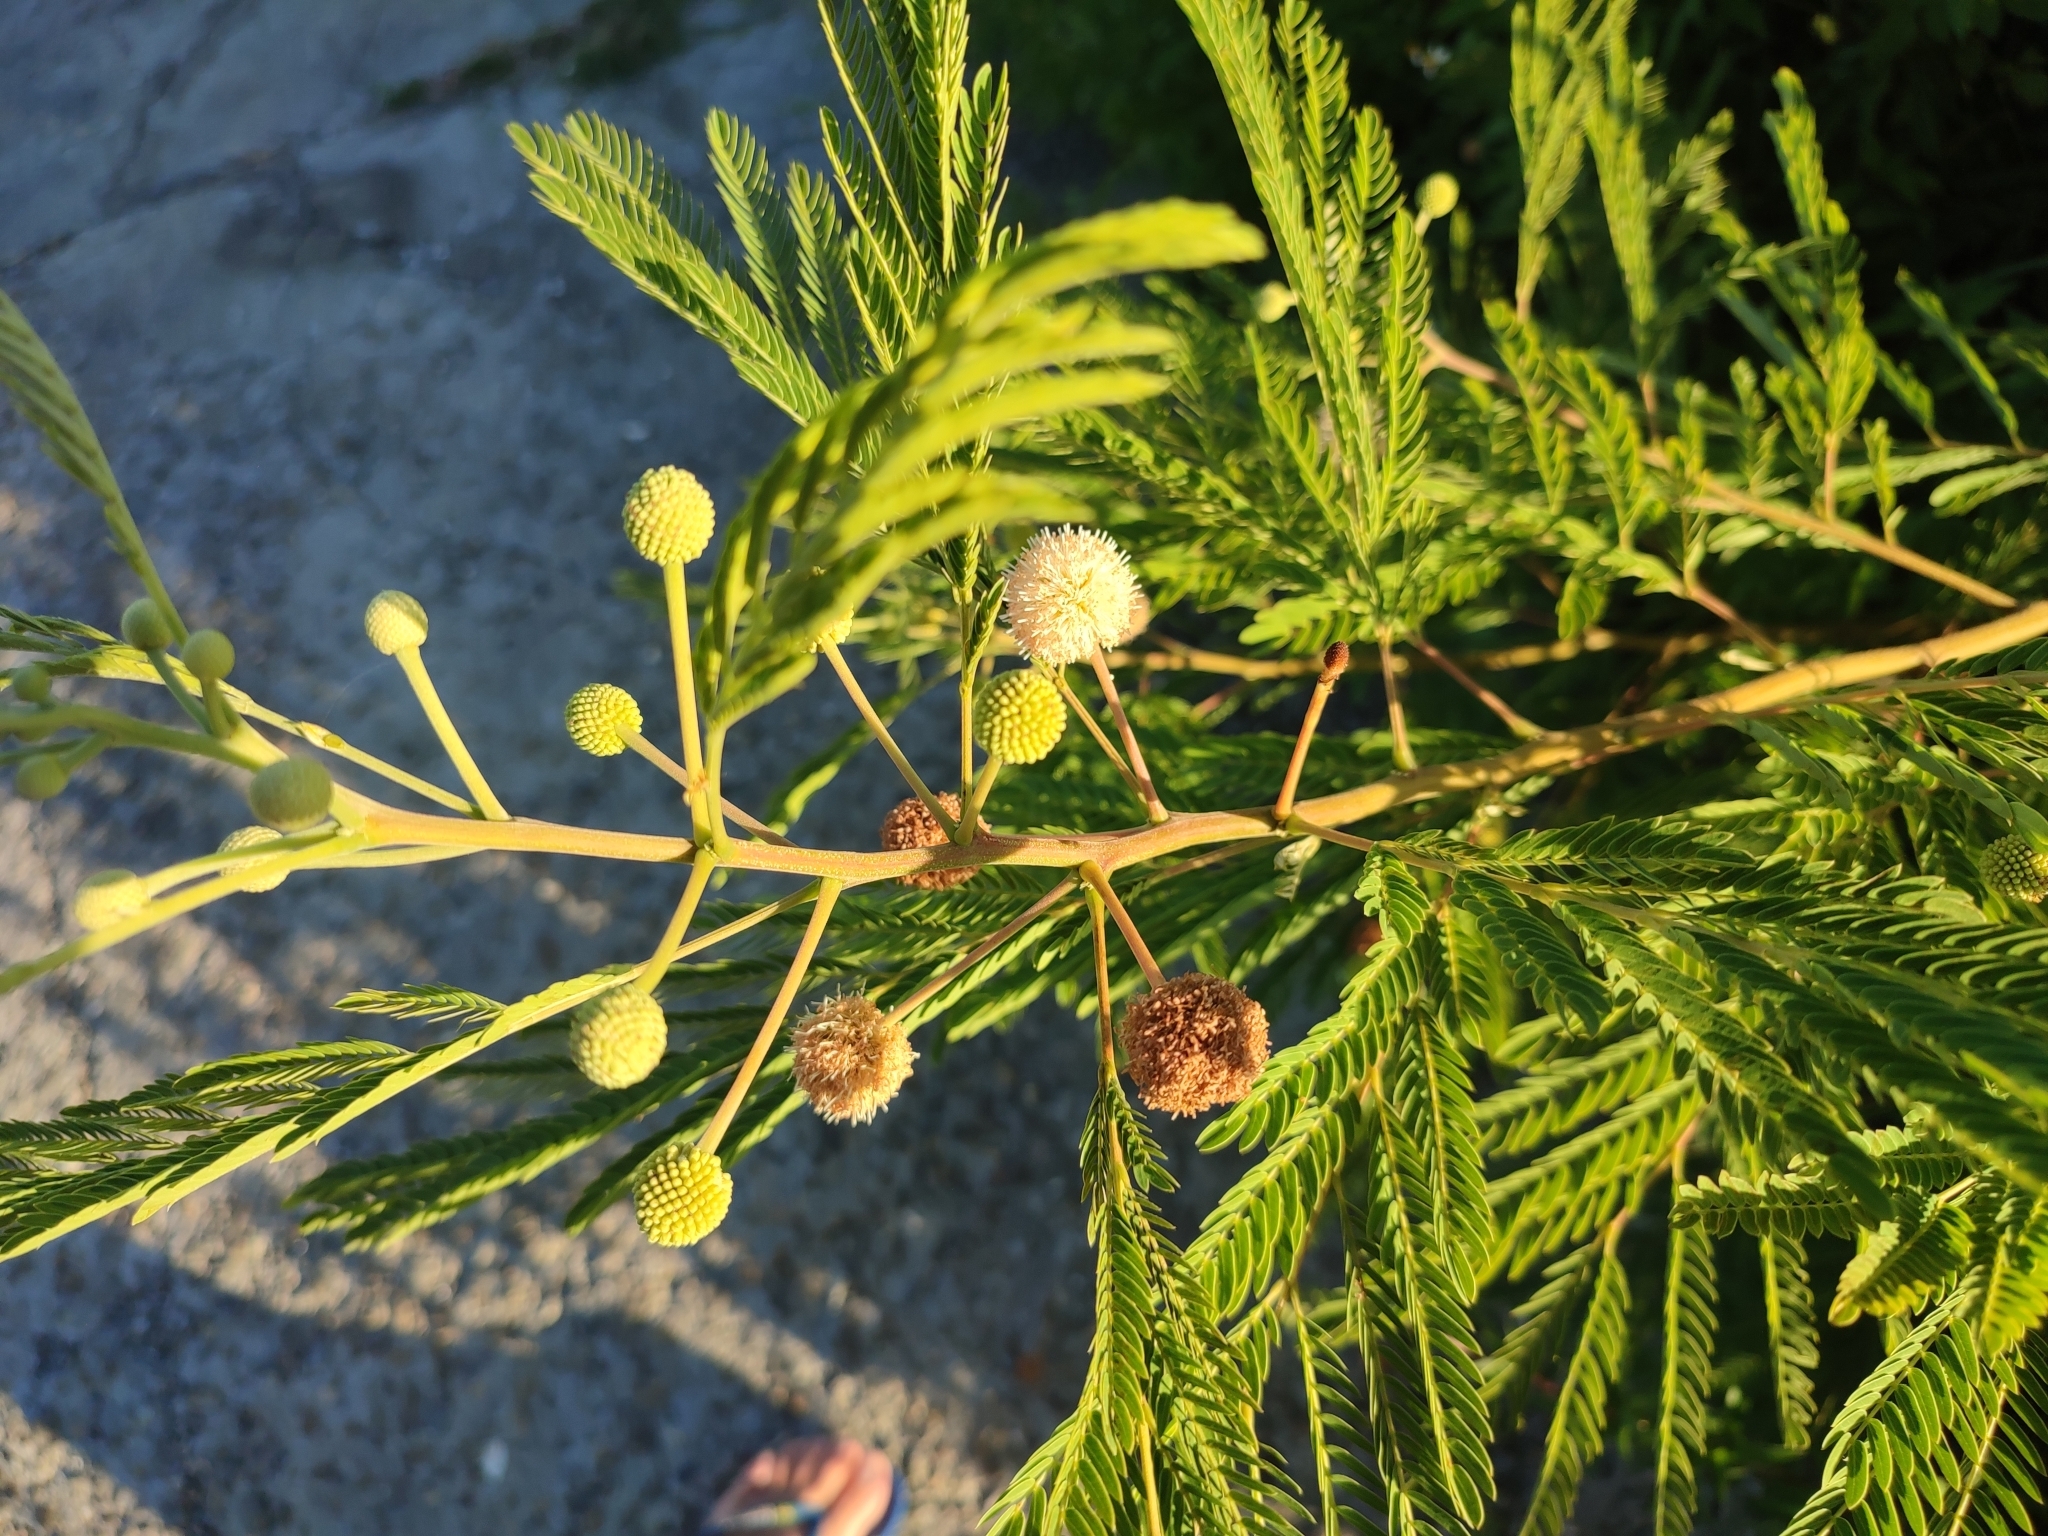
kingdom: Plantae
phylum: Tracheophyta
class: Magnoliopsida
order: Fabales
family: Fabaceae
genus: Leucaena
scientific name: Leucaena leucocephala
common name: White leadtree
